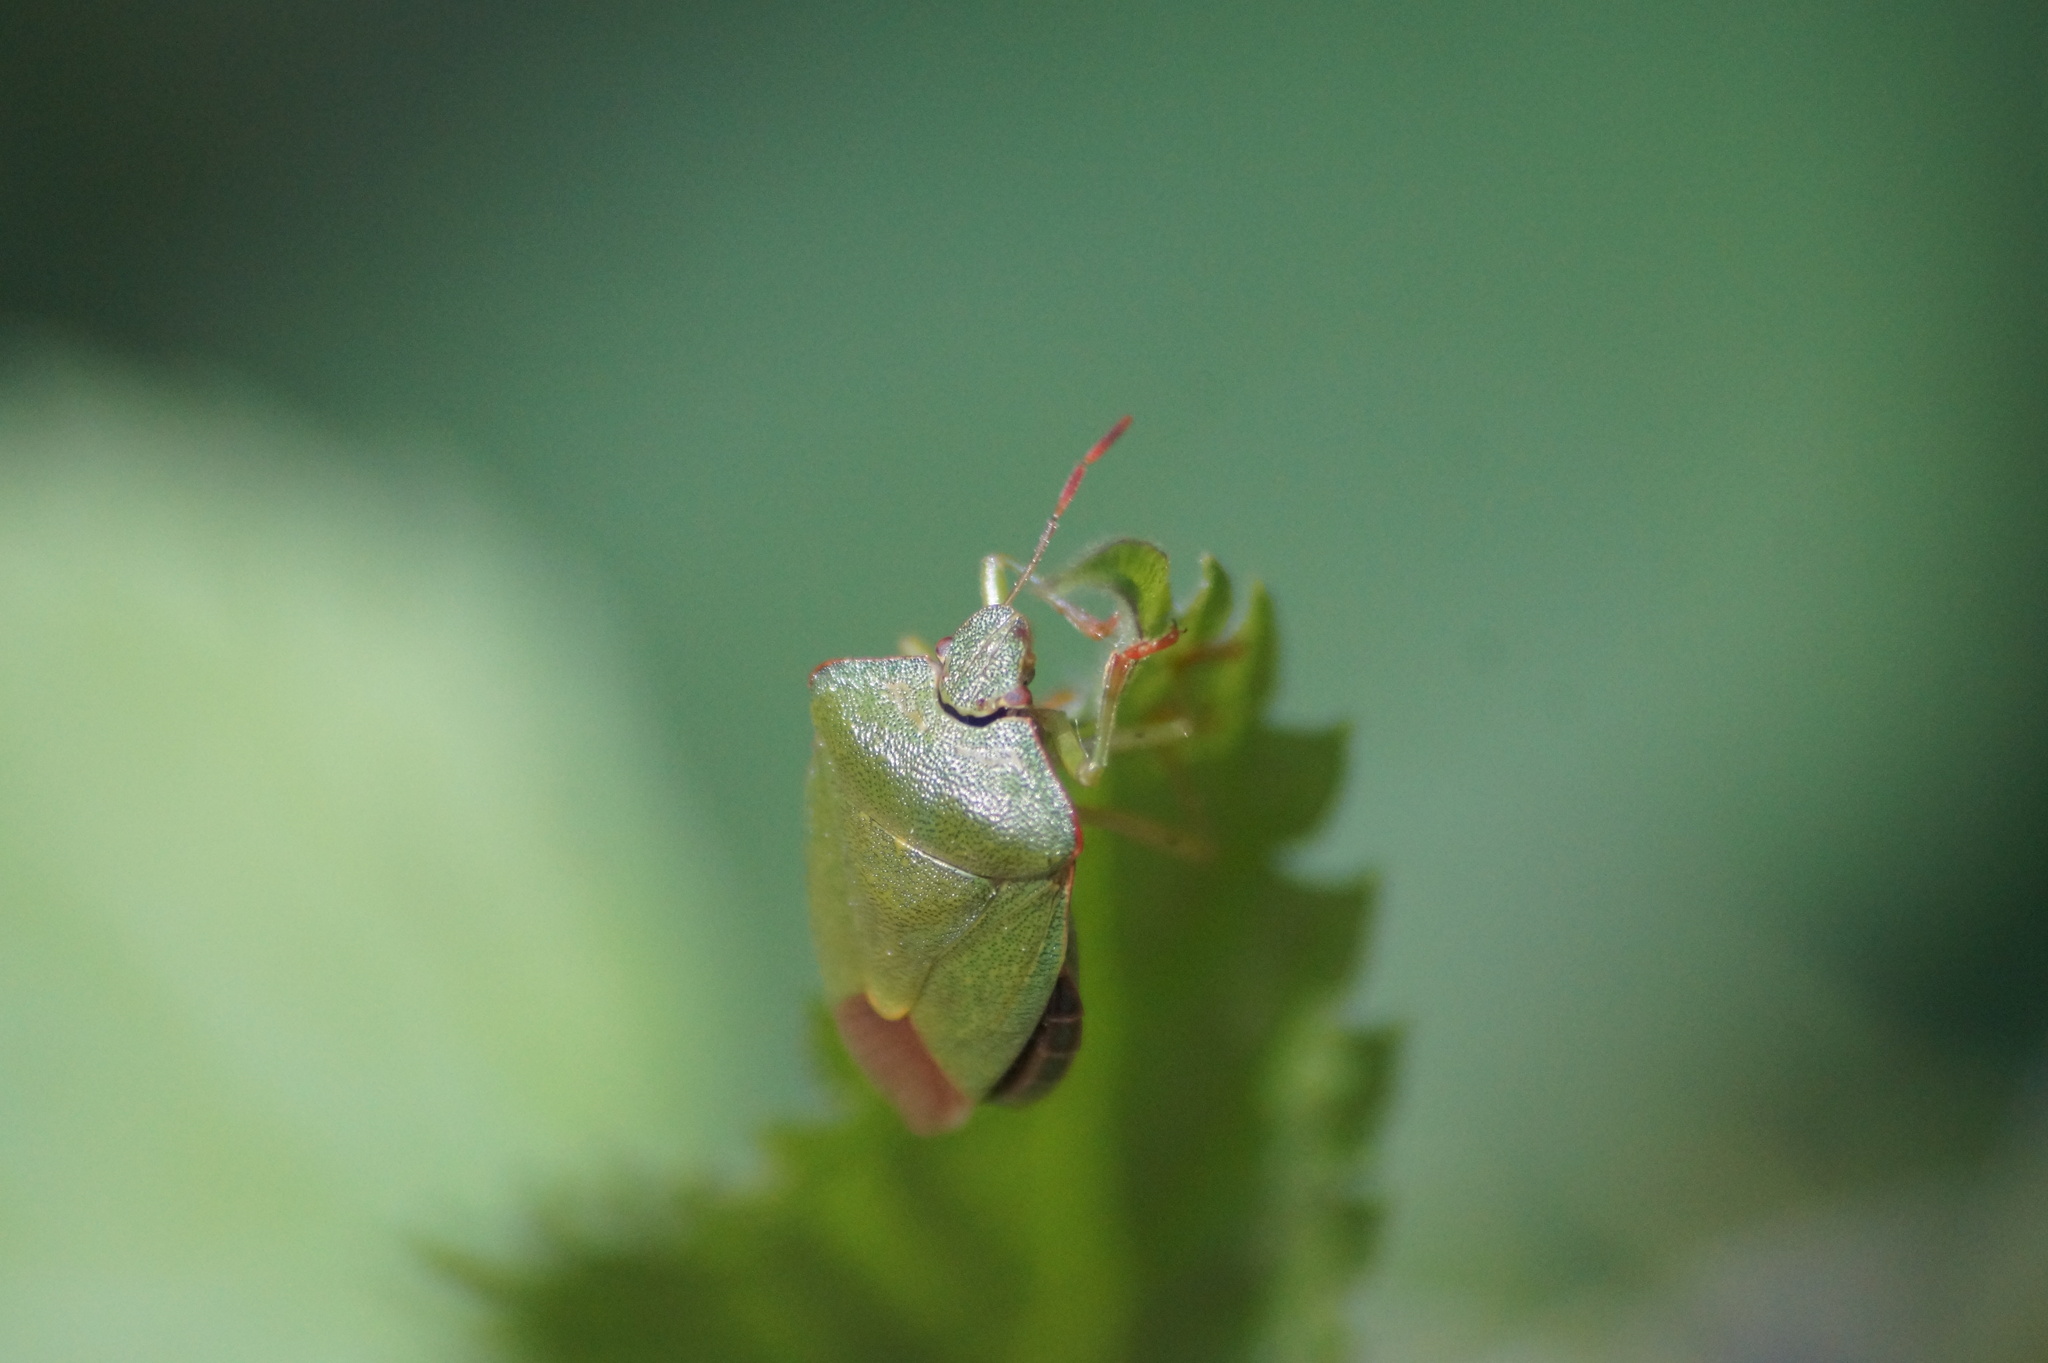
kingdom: Animalia
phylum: Arthropoda
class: Insecta
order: Hemiptera
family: Pentatomidae
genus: Palomena
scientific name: Palomena prasina
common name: Green shieldbug
